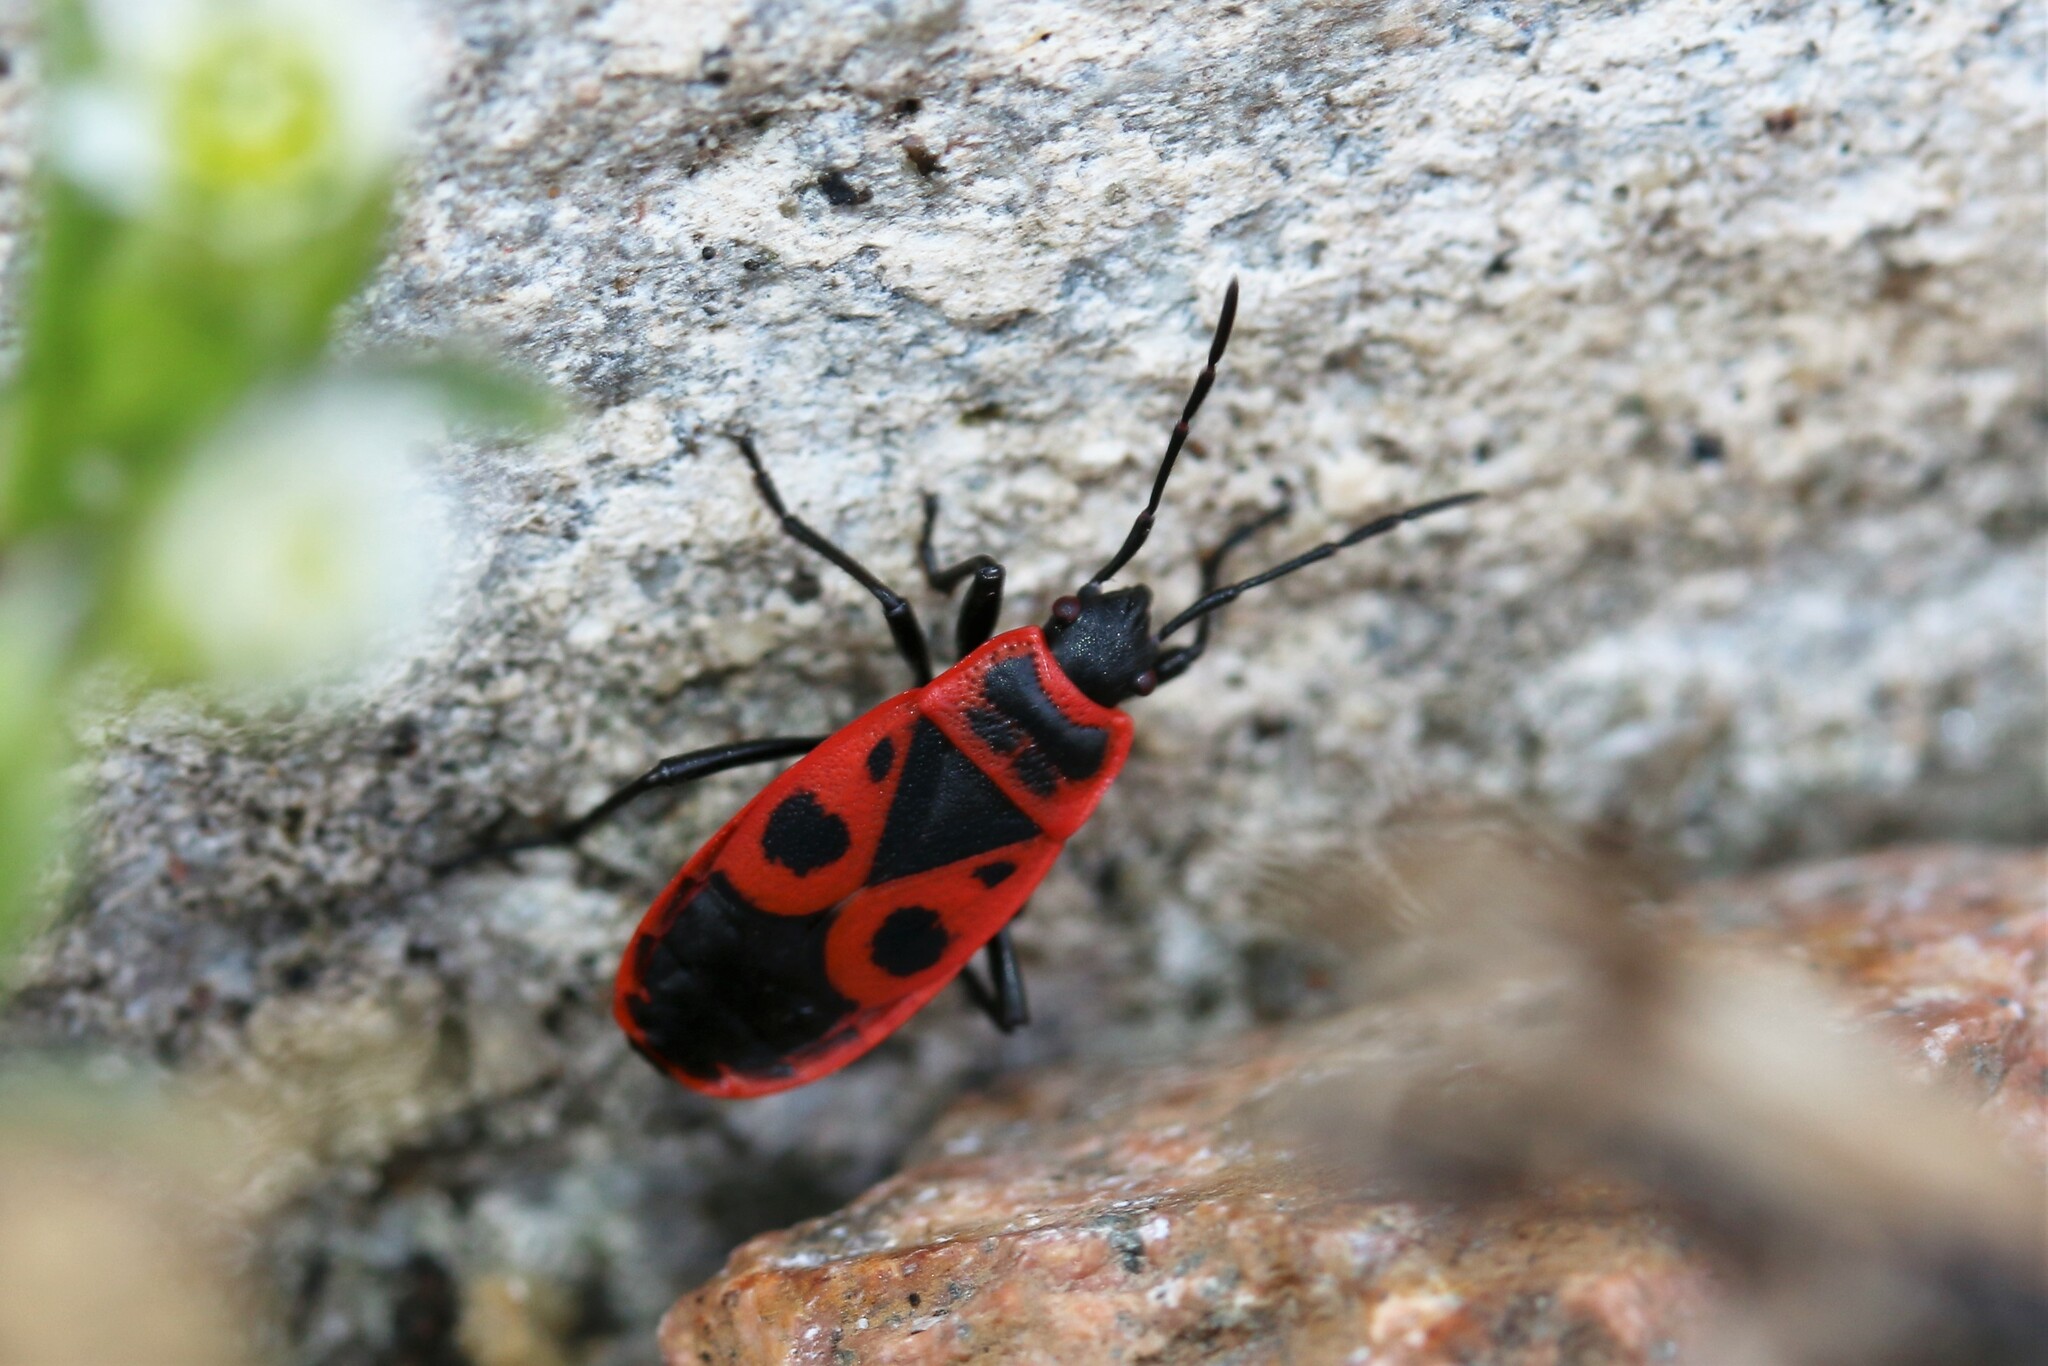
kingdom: Animalia
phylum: Arthropoda
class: Insecta
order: Hemiptera
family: Pyrrhocoridae
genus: Pyrrhocoris
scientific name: Pyrrhocoris apterus
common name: Firebug
